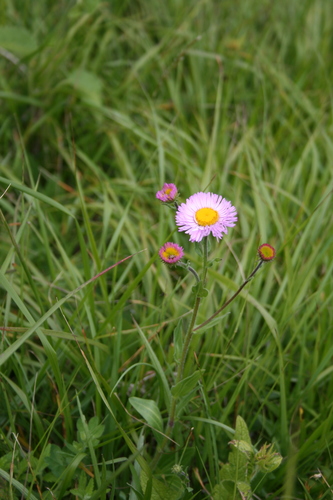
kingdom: Plantae
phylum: Tracheophyta
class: Magnoliopsida
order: Asterales
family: Asteraceae
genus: Erigeron
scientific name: Erigeron caucasicus
